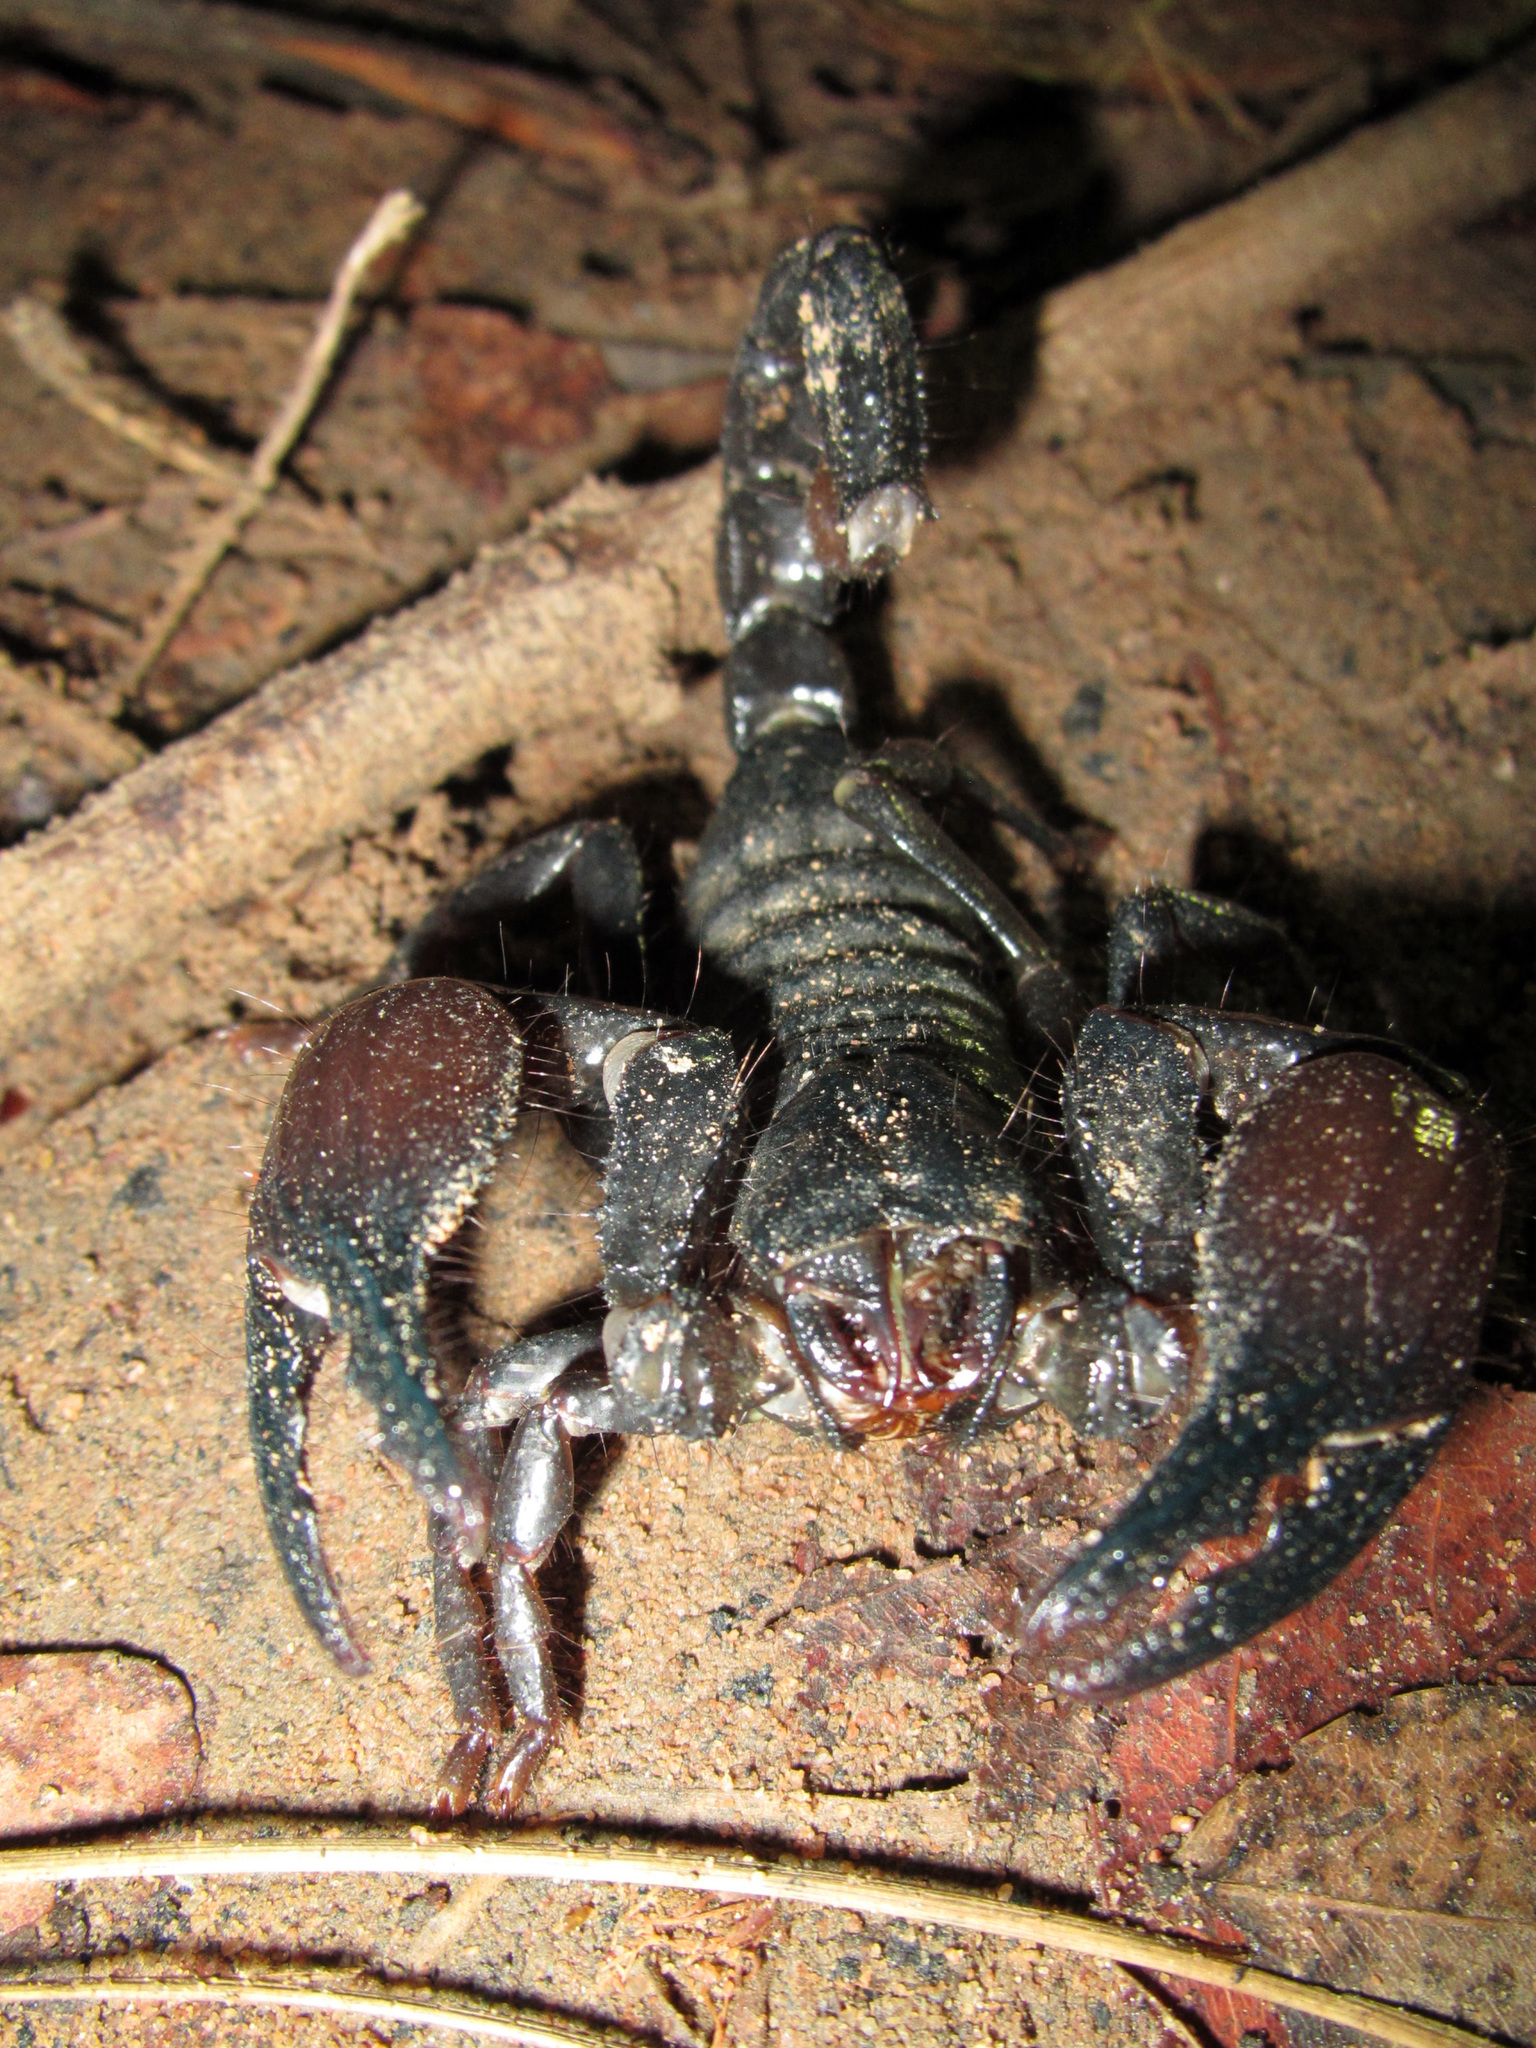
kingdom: Animalia
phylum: Arthropoda
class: Arachnida
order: Scorpiones
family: Scorpionidae
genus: Pandipalpus
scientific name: Pandipalpus viatoris
